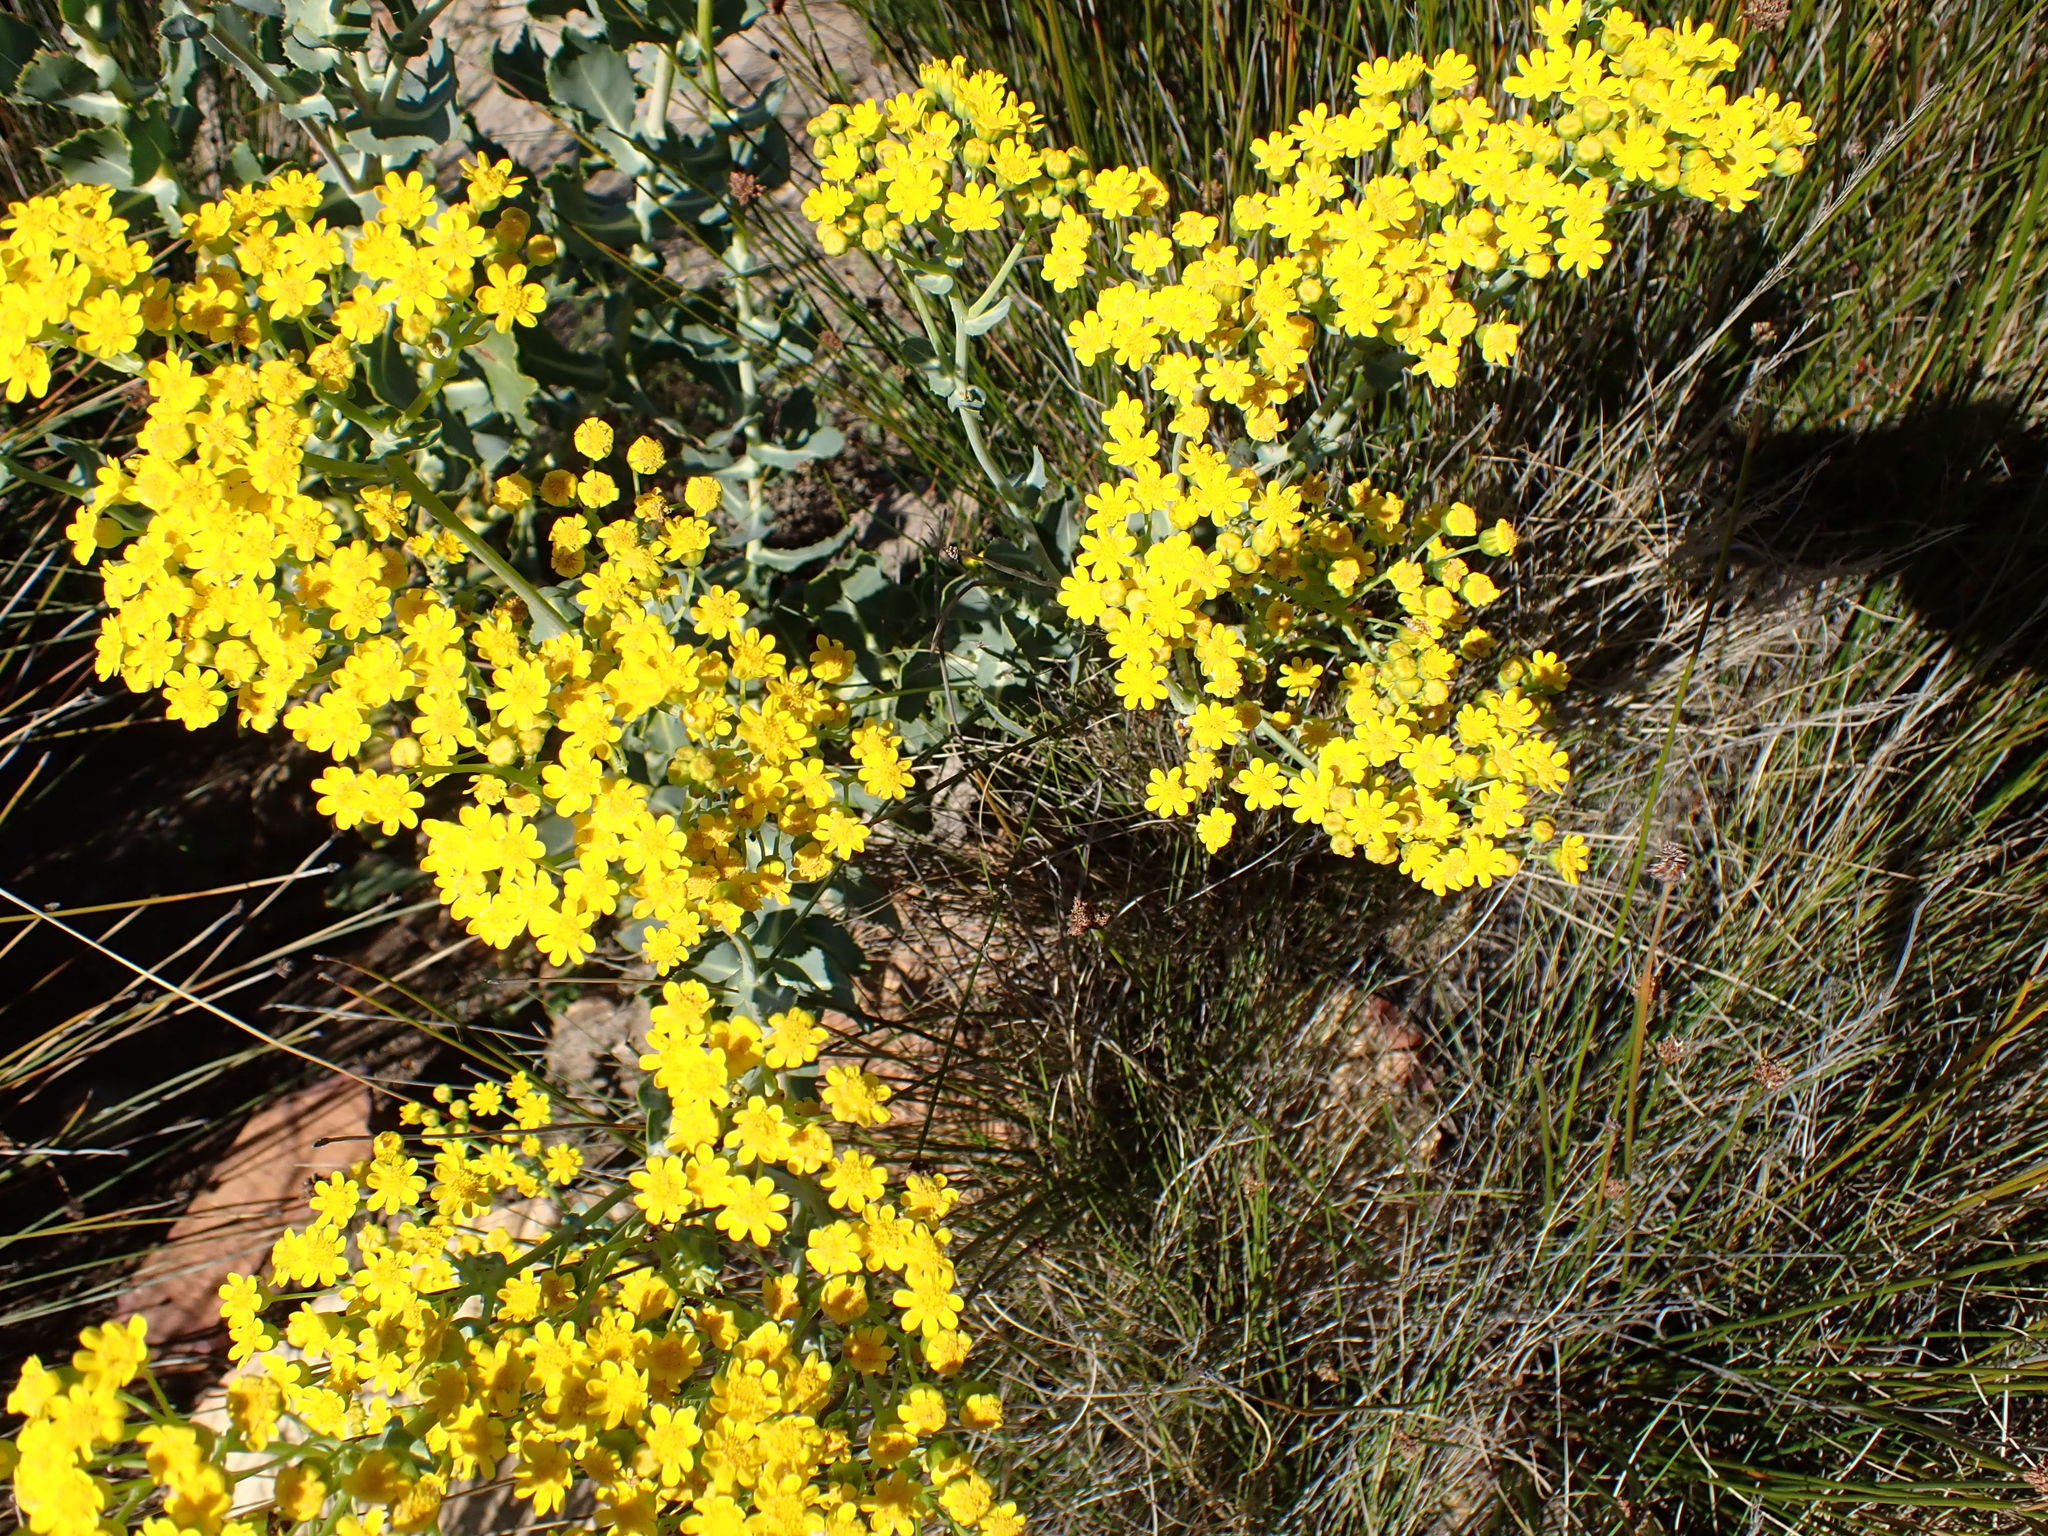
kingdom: Plantae
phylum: Tracheophyta
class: Magnoliopsida
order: Asterales
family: Asteraceae
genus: Othonna
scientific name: Othonna parviflora
